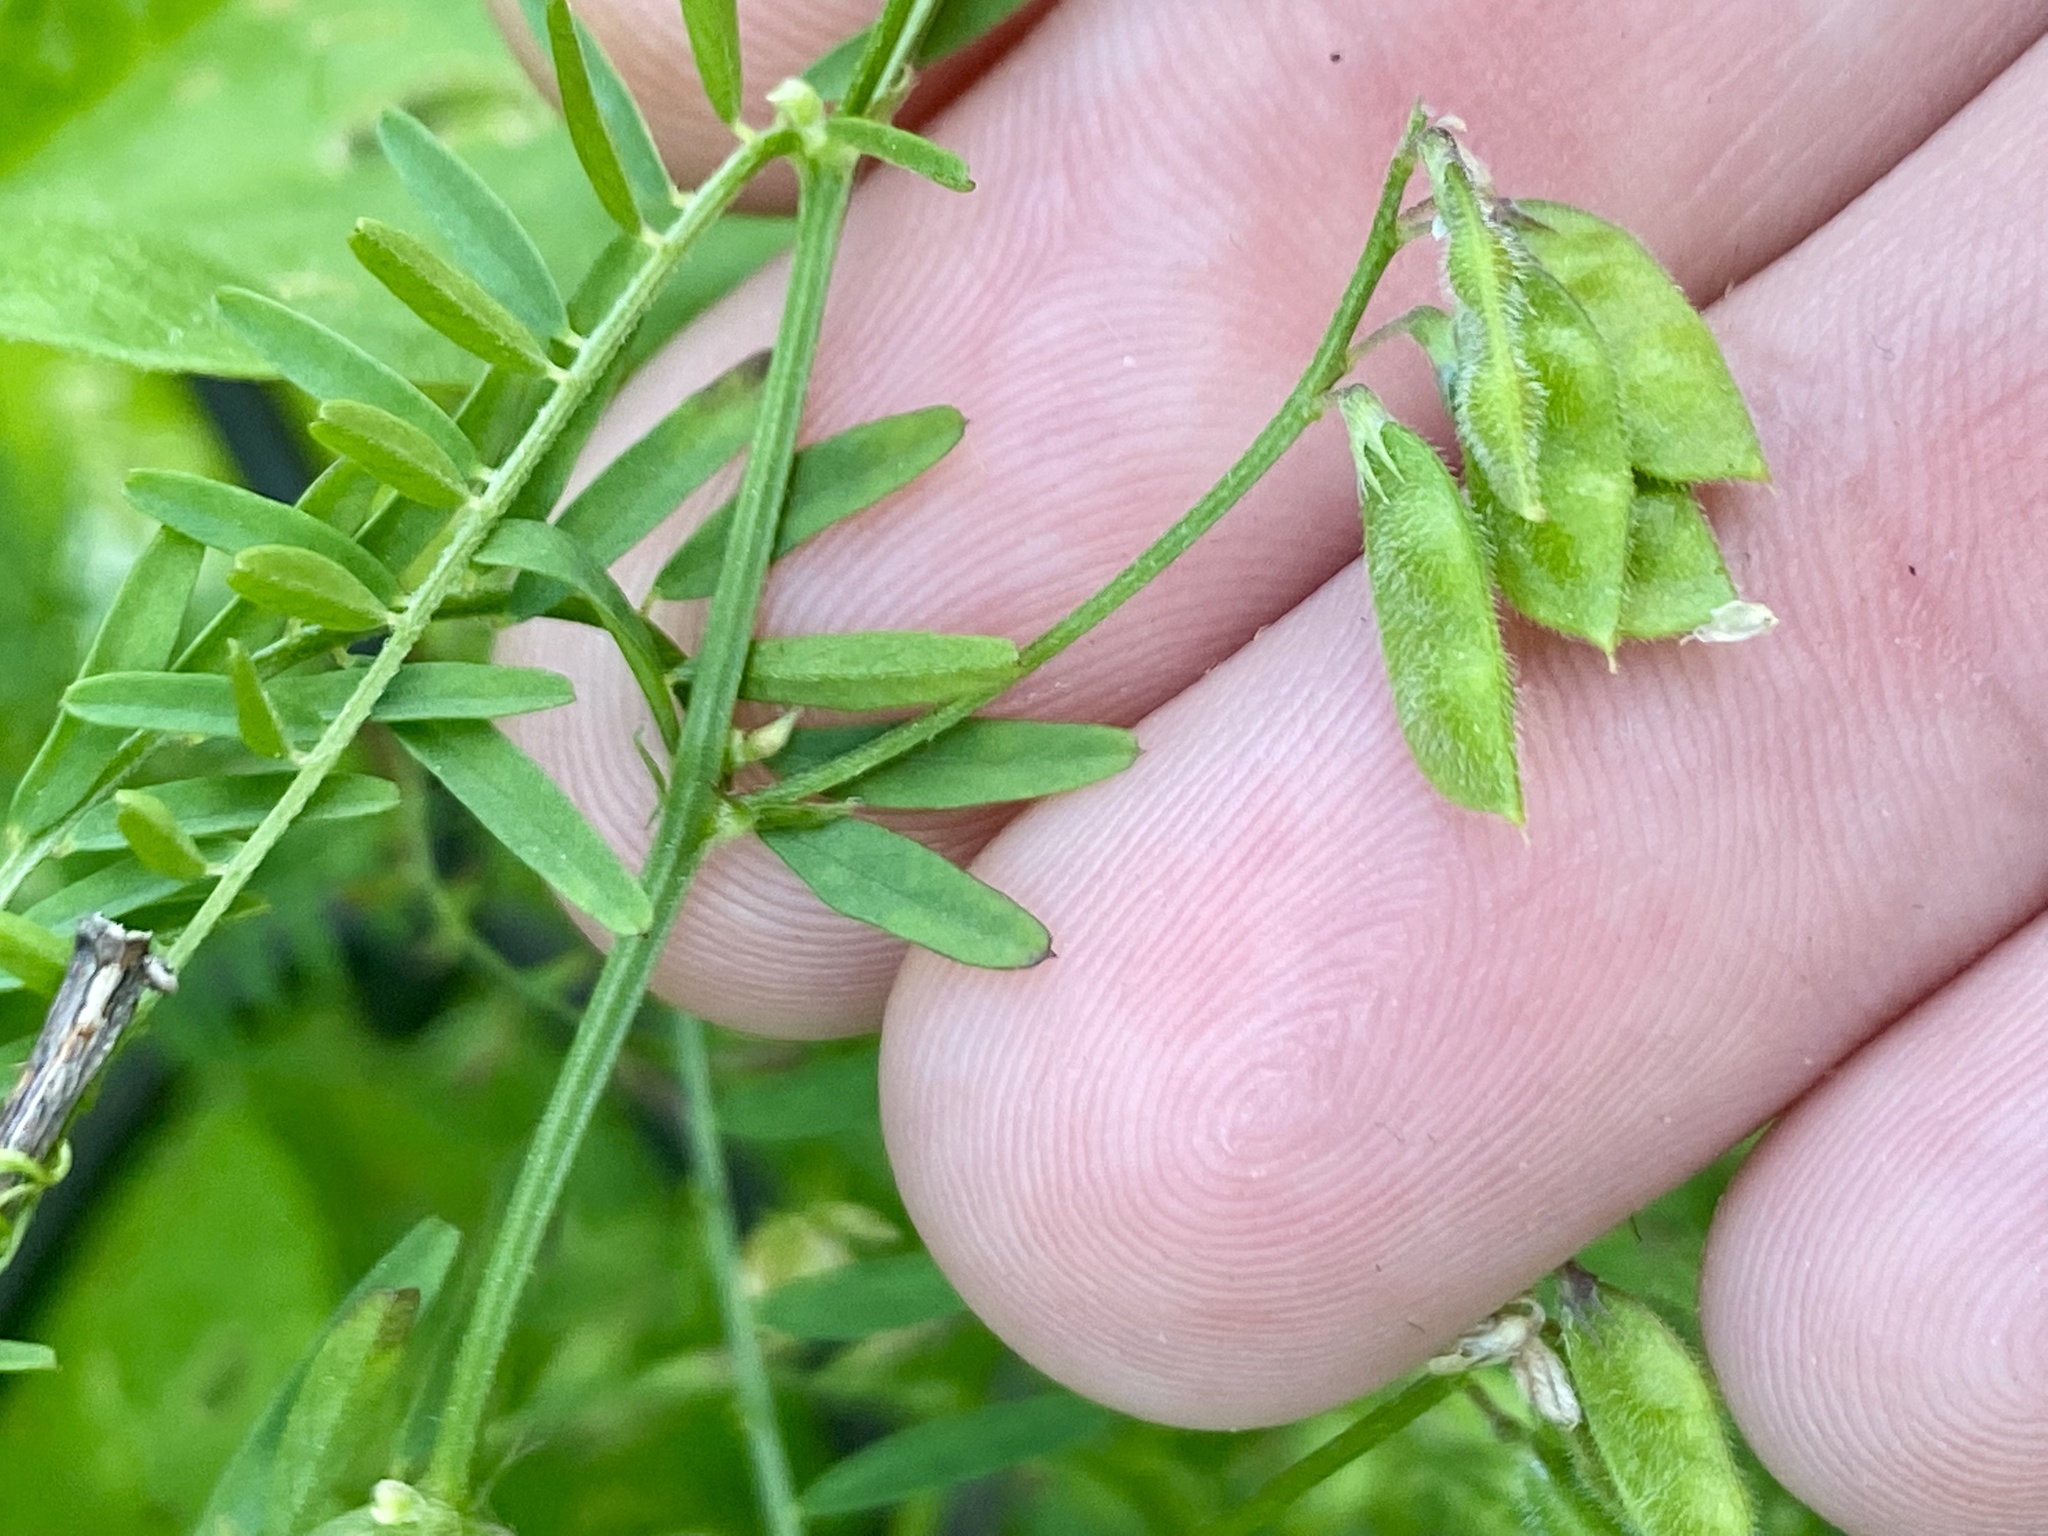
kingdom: Plantae
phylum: Tracheophyta
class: Magnoliopsida
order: Fabales
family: Fabaceae
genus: Vicia
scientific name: Vicia hirsuta
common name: Tiny vetch
